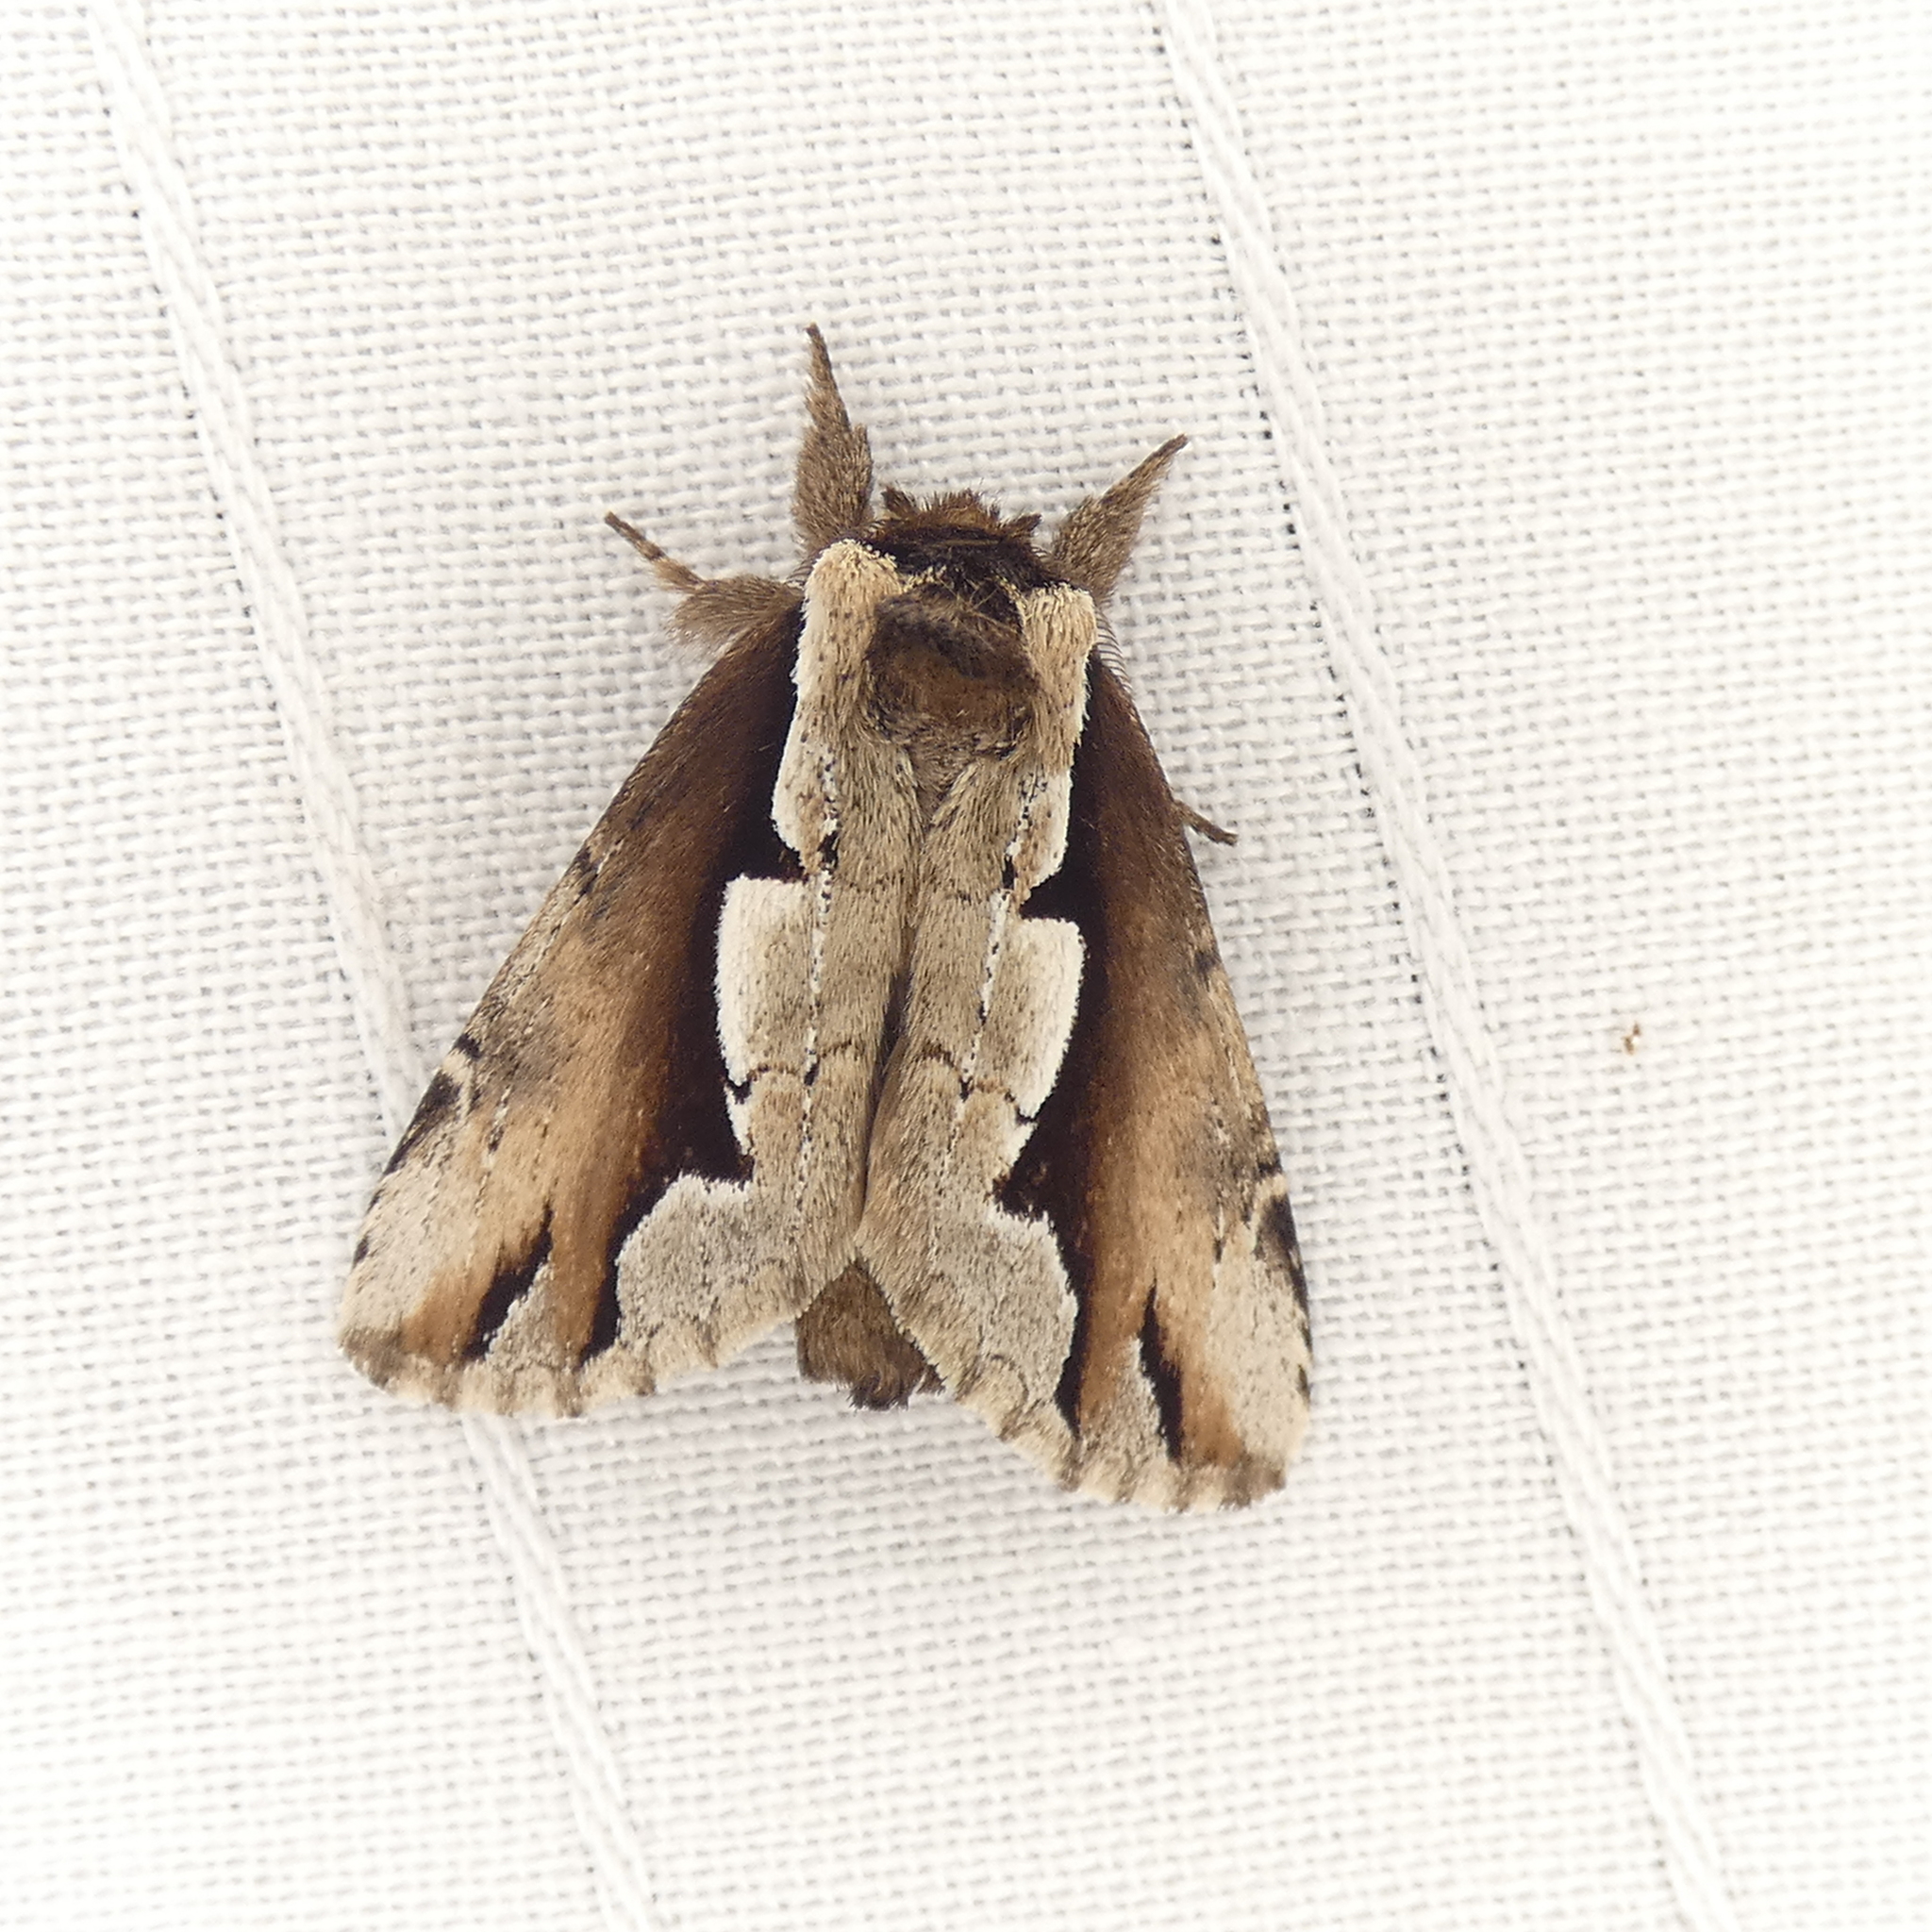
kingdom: Animalia
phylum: Arthropoda
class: Insecta
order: Lepidoptera
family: Notodontidae
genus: Nerice
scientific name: Nerice bidentata
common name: Double-toothed prominent
